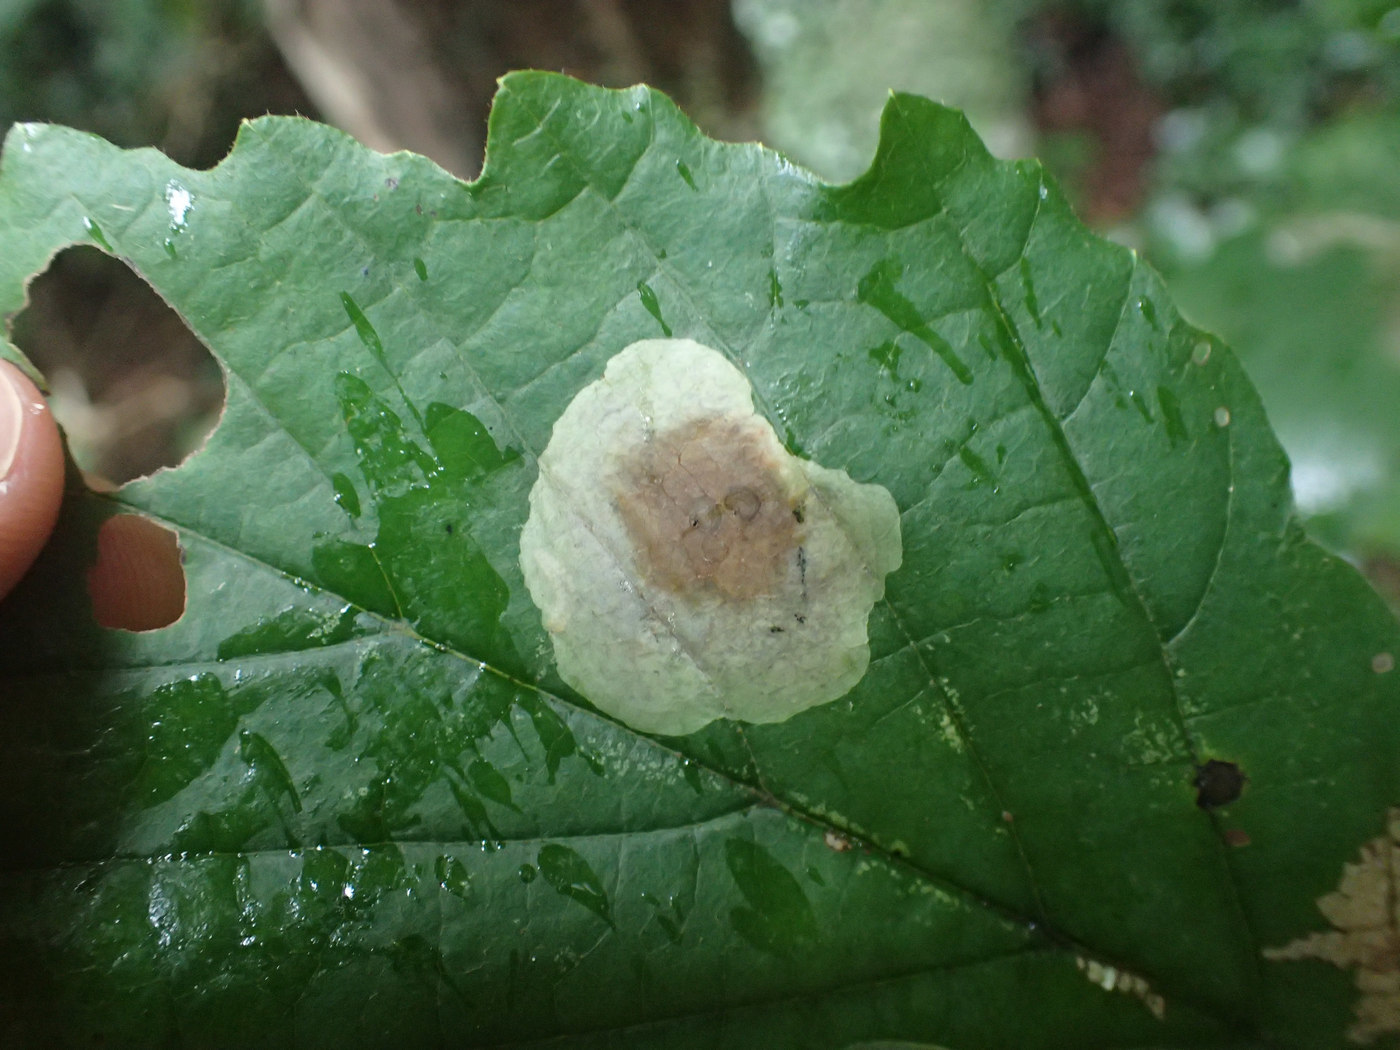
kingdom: Animalia
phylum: Arthropoda
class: Insecta
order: Lepidoptera
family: Gracillariidae
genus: Cameraria
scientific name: Cameraria hamameliella
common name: Witchhazel leafminer
